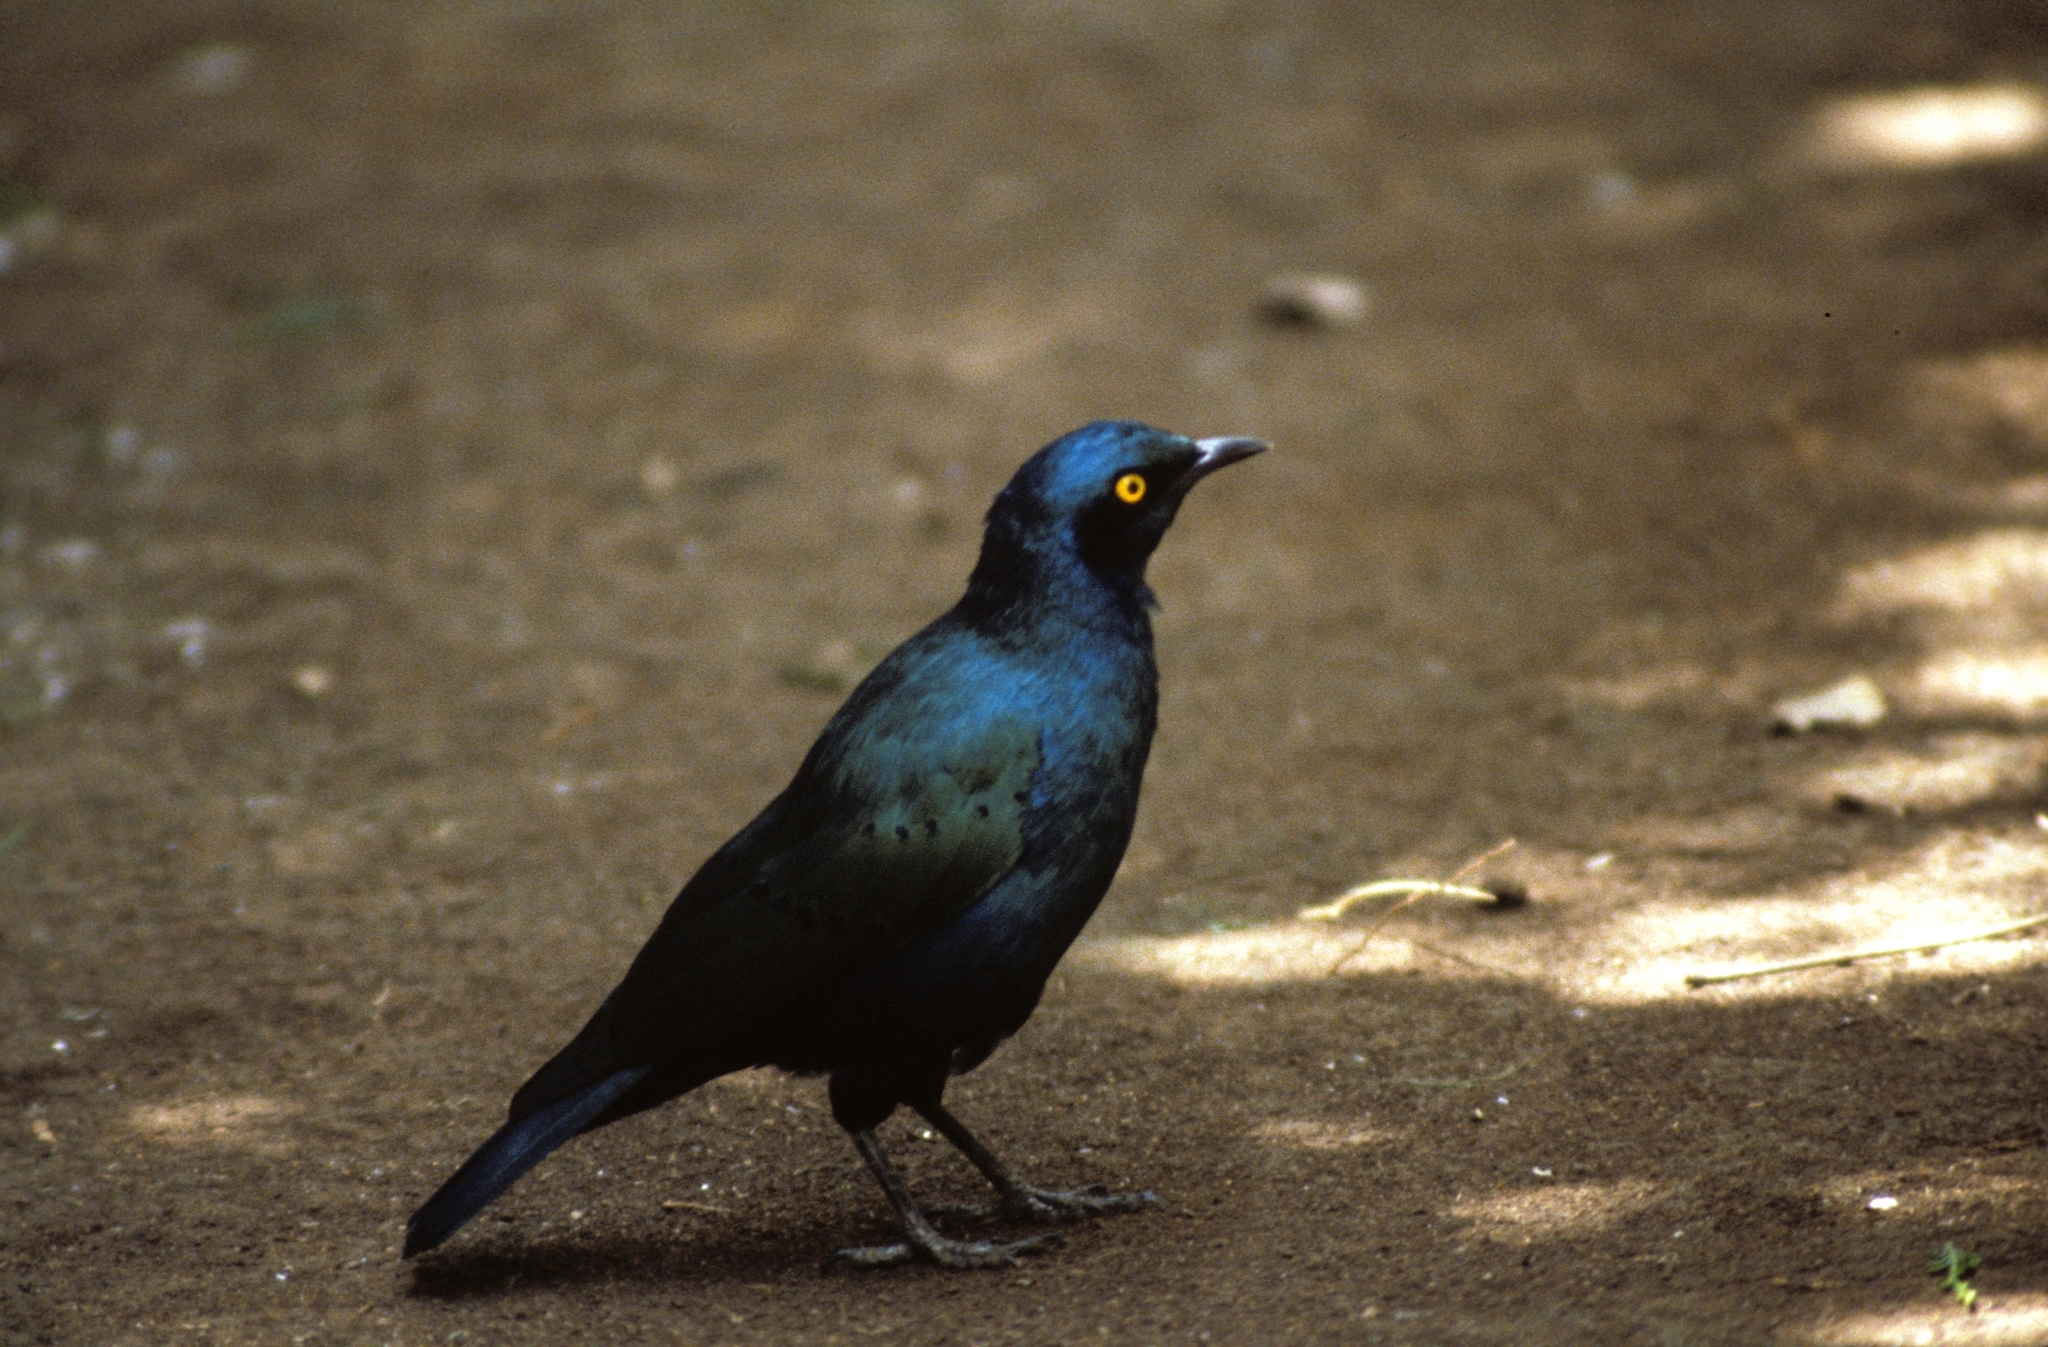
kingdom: Animalia
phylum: Chordata
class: Aves
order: Passeriformes
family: Sturnidae
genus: Lamprotornis
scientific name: Lamprotornis chalybaeus
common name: Greater blue-eared starling
